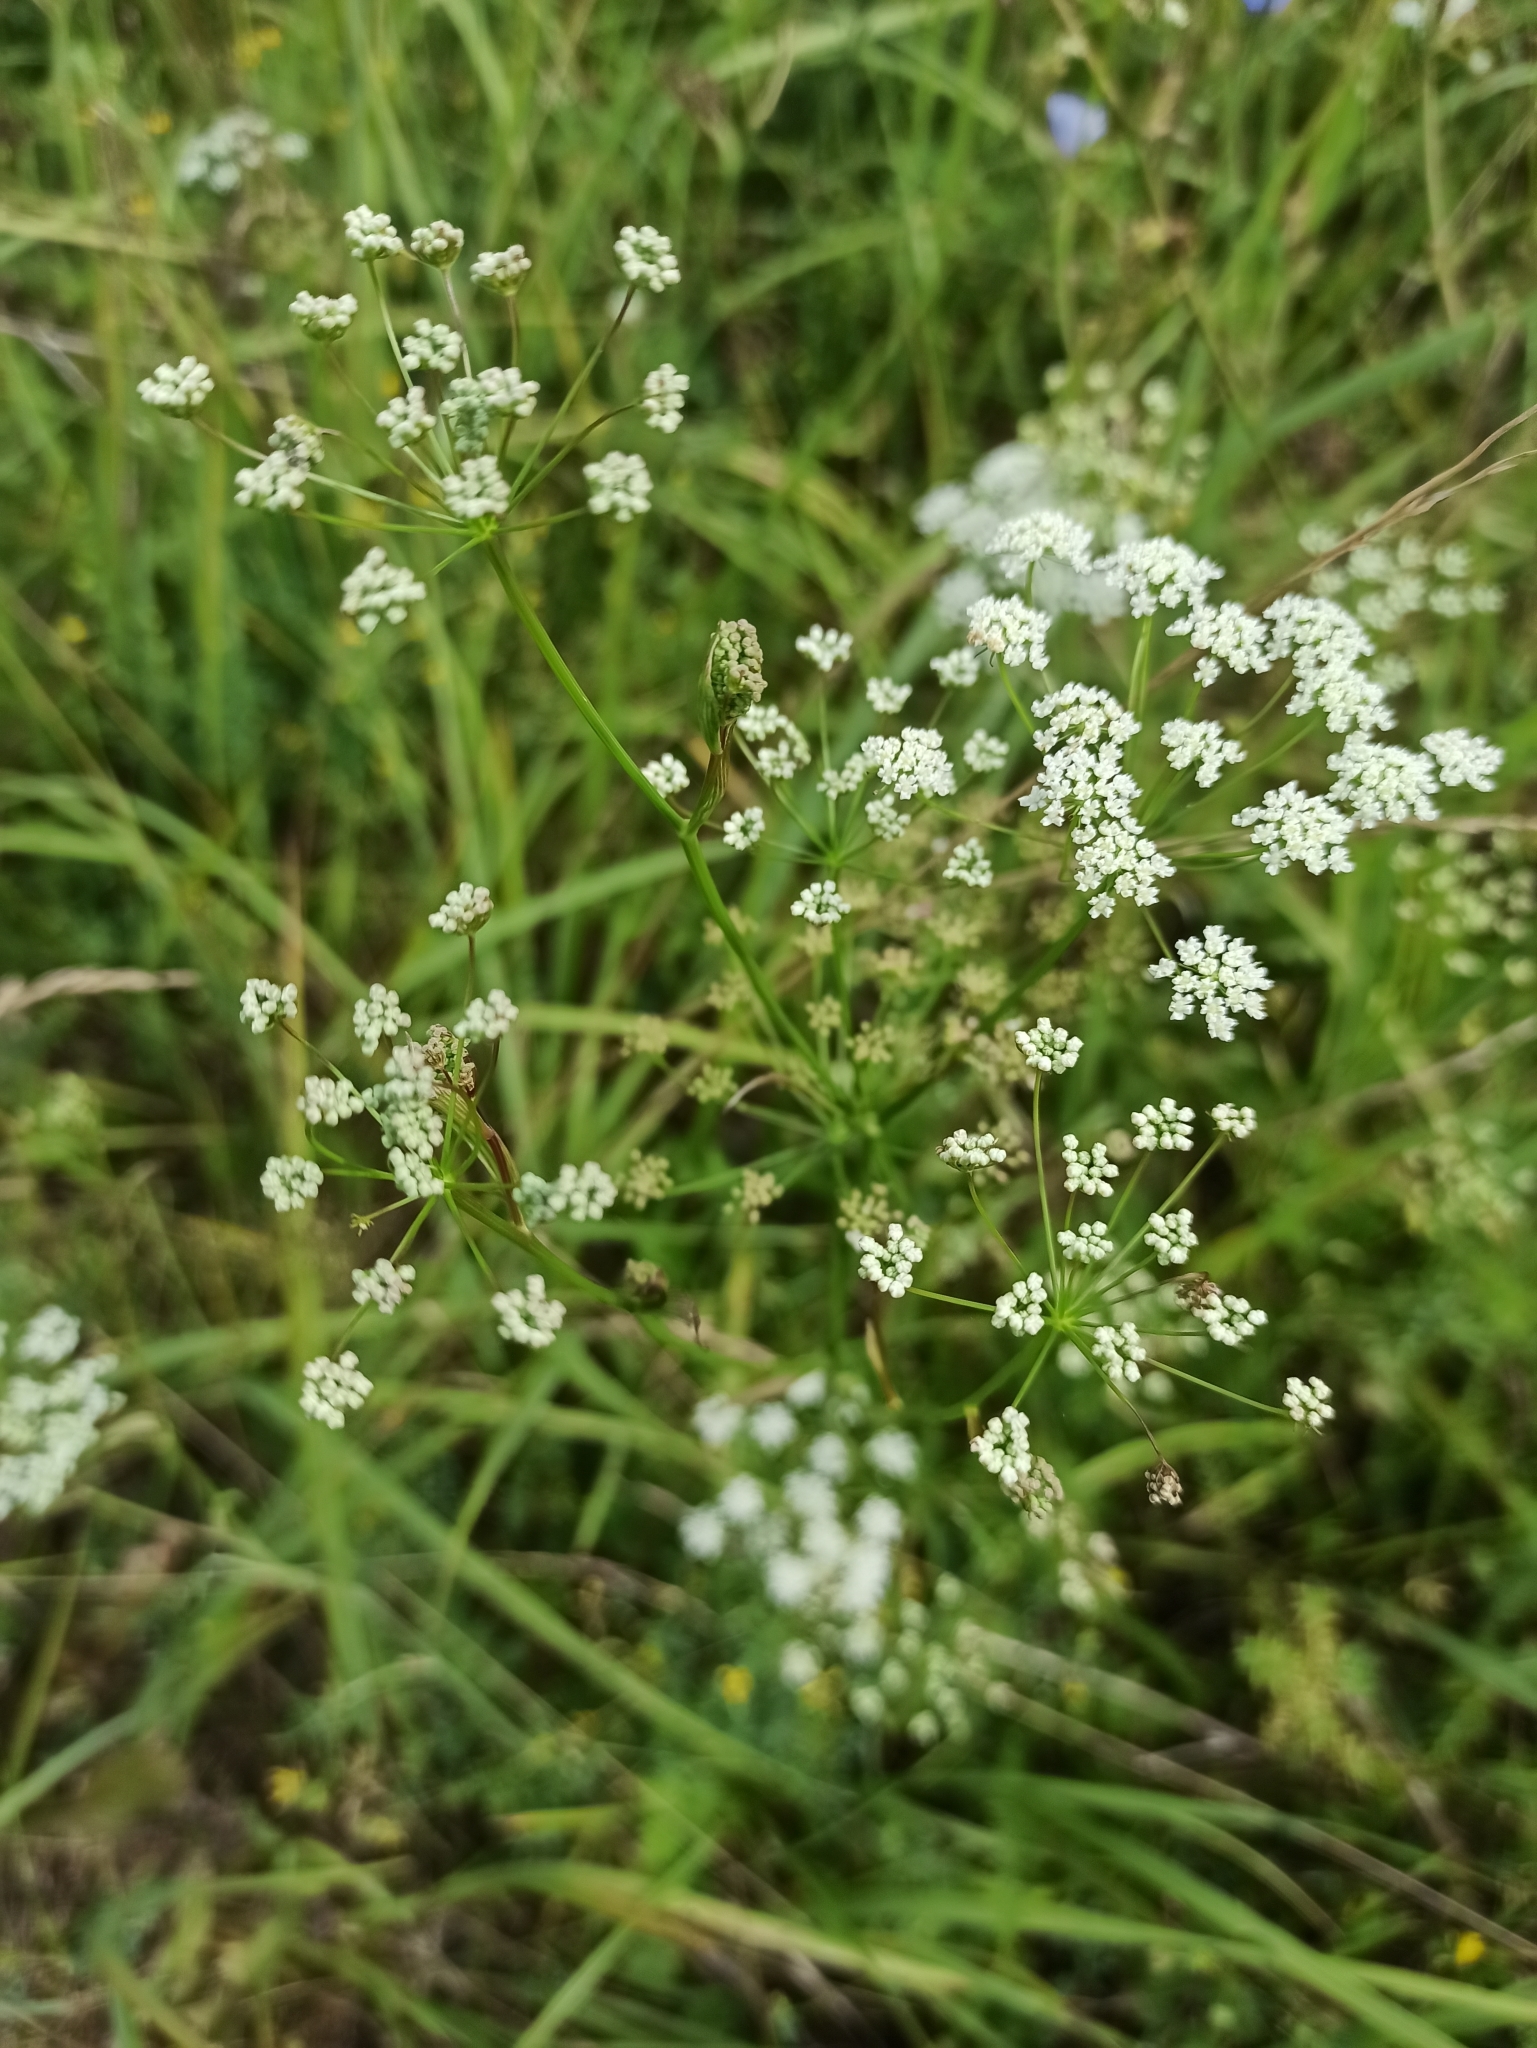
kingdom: Plantae
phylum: Tracheophyta
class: Magnoliopsida
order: Apiales
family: Apiaceae
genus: Pimpinella
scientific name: Pimpinella saxifraga
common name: Burnet-saxifrage
